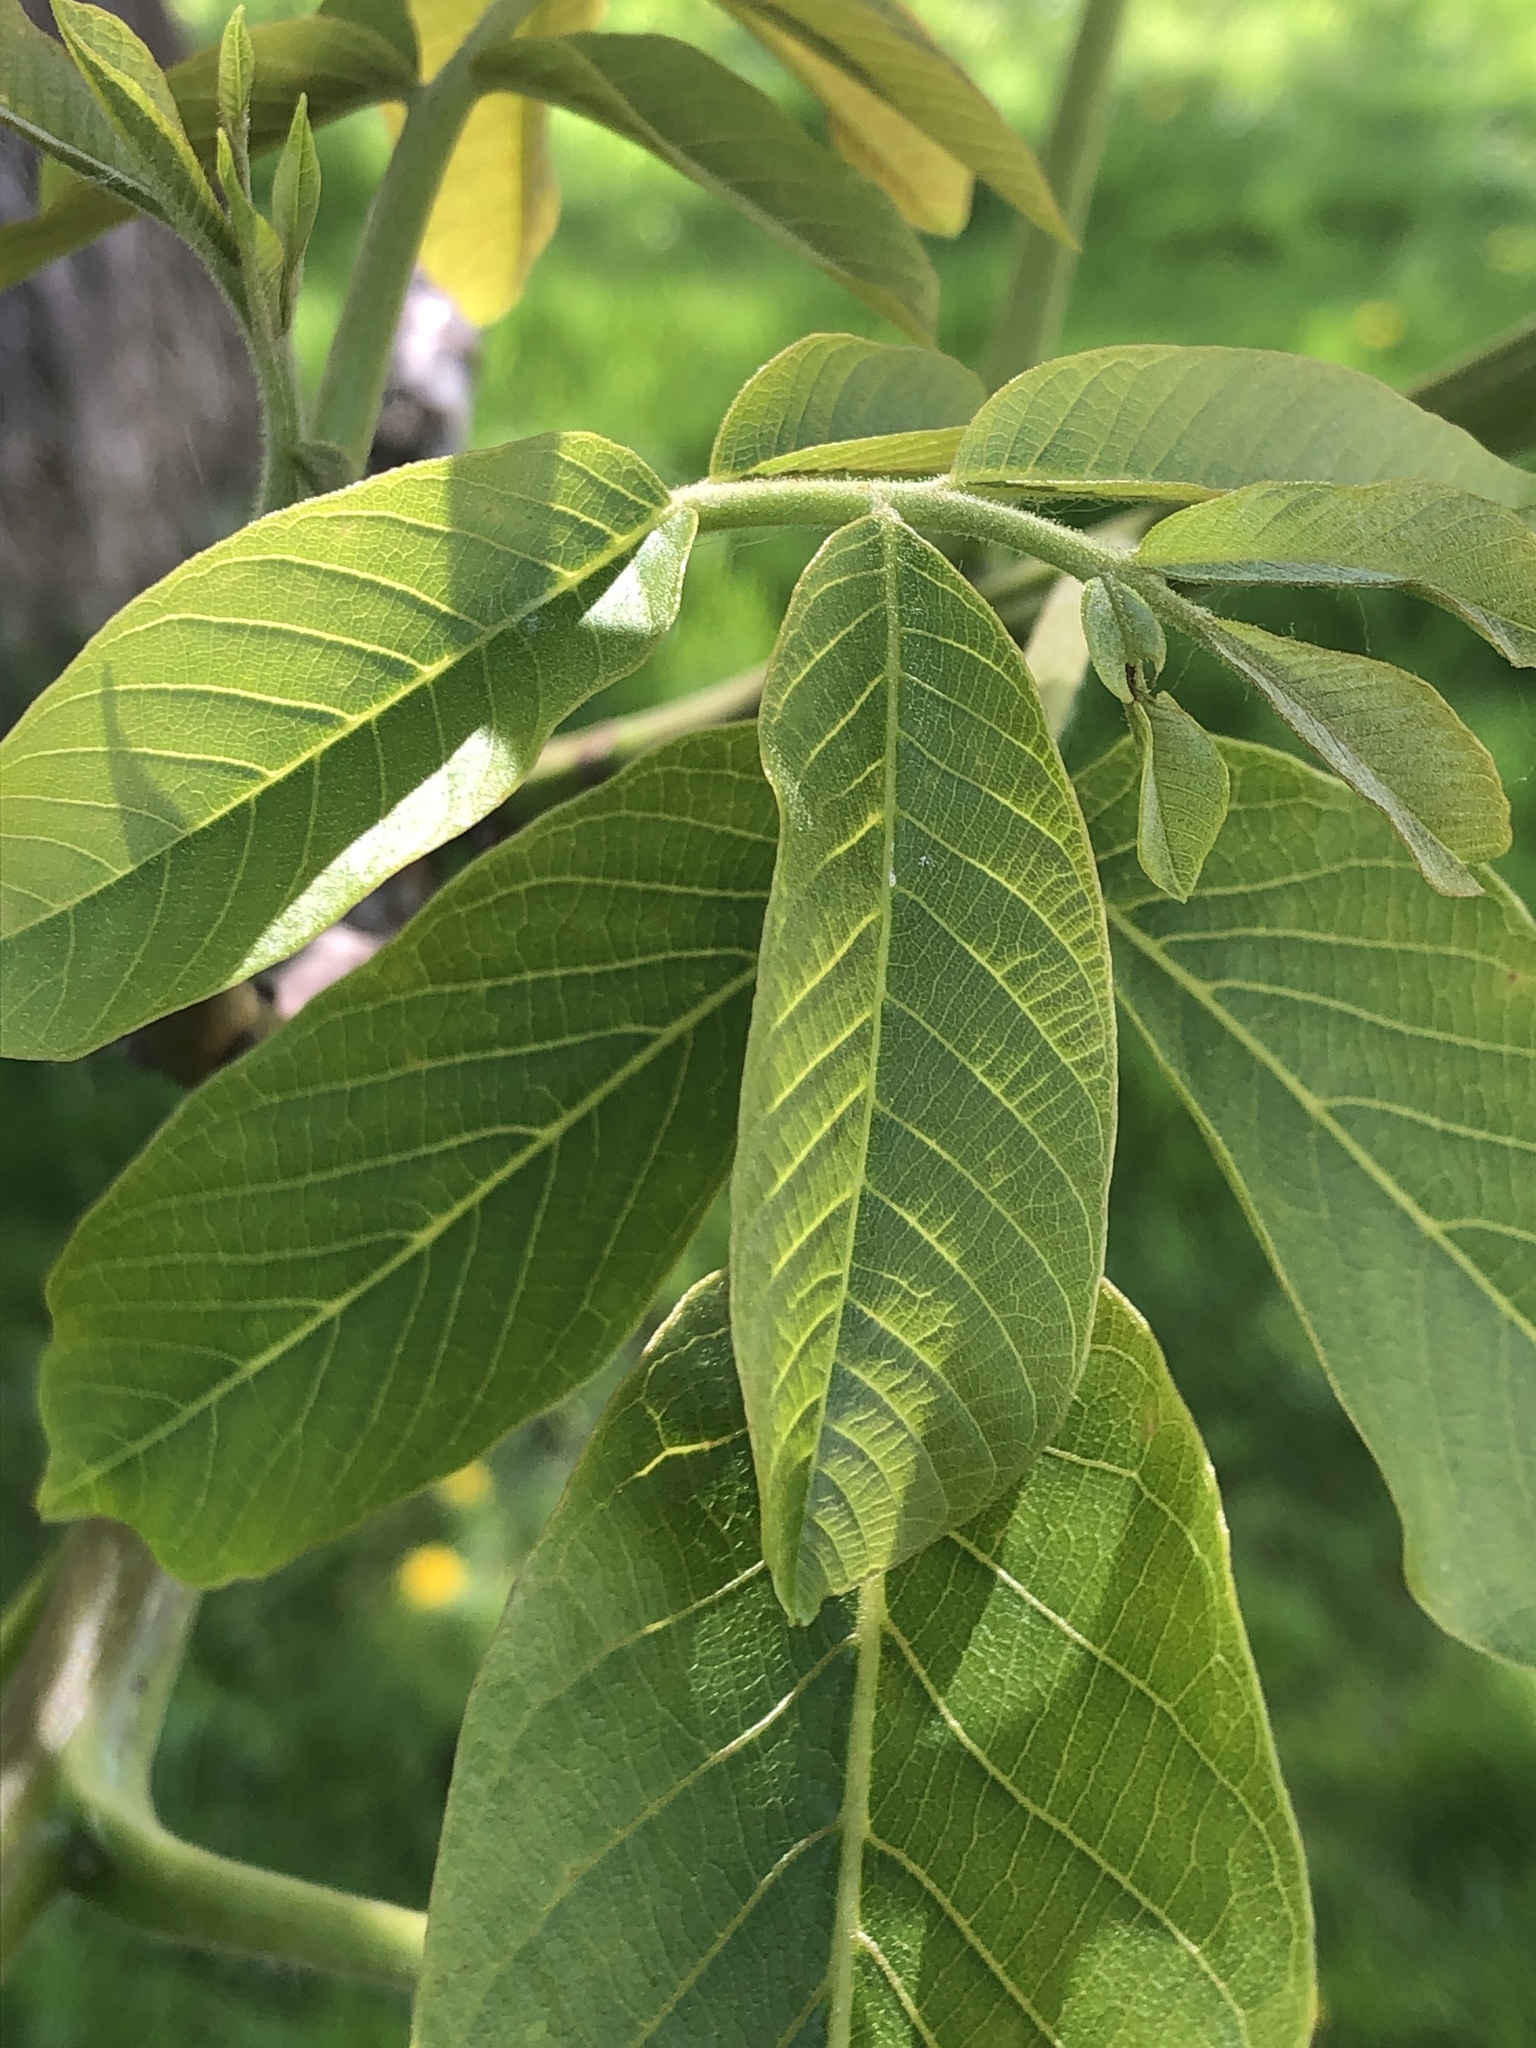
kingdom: Plantae
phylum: Tracheophyta
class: Magnoliopsida
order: Fagales
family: Juglandaceae
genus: Juglans
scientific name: Juglans regia
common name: Walnut
